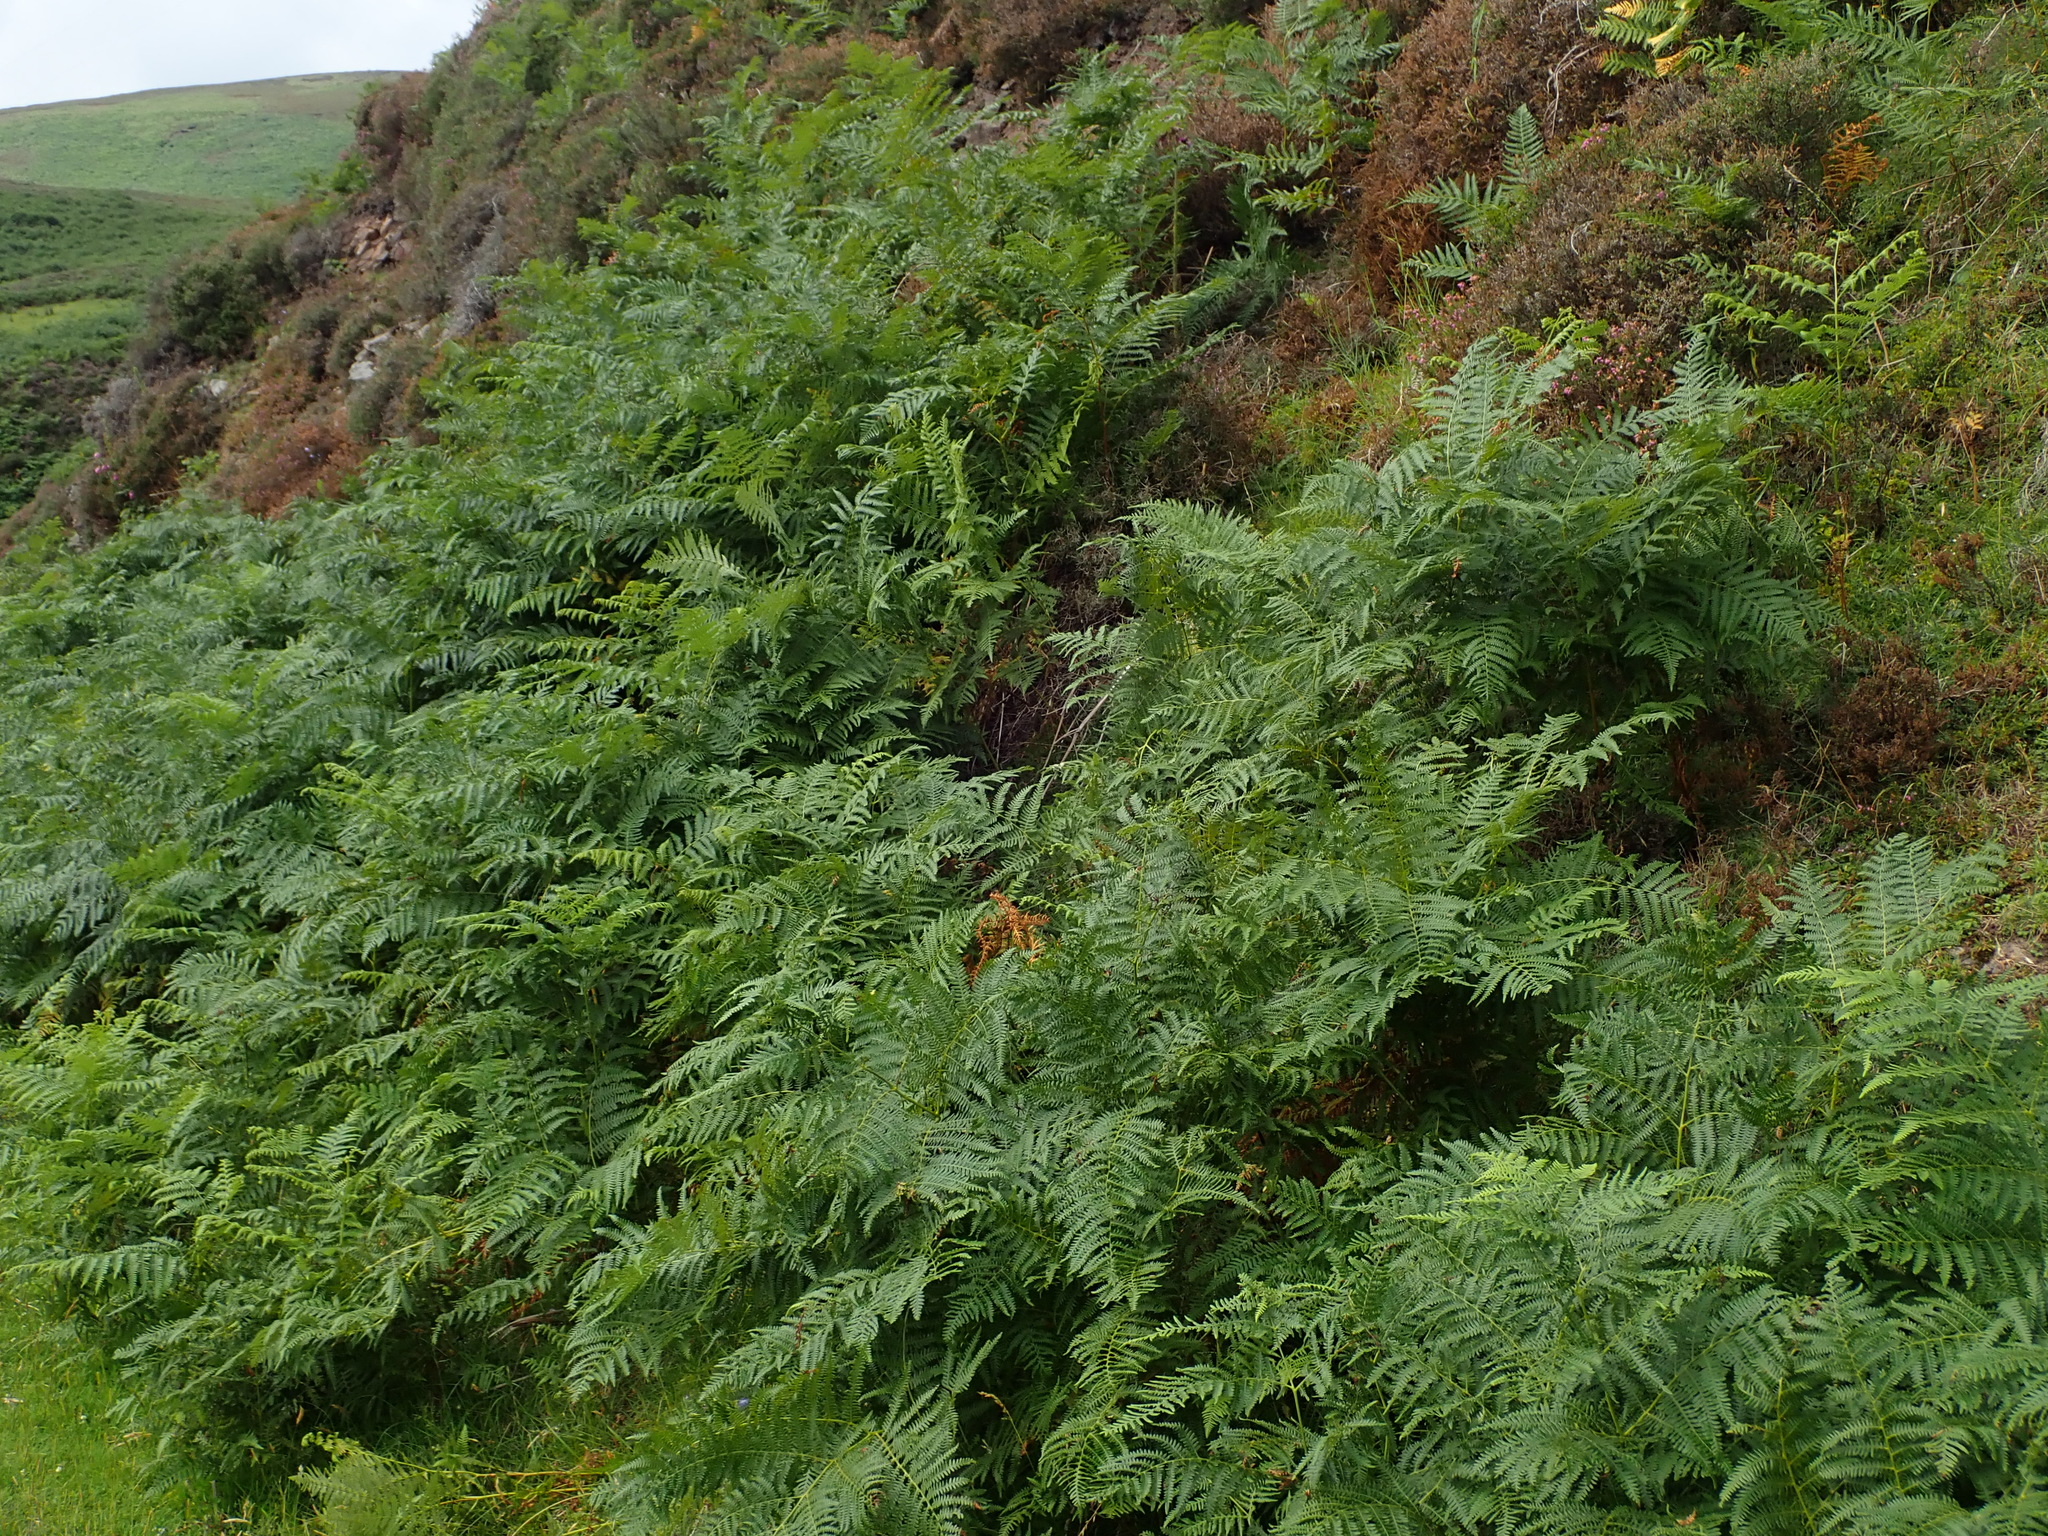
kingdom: Plantae
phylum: Tracheophyta
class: Polypodiopsida
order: Polypodiales
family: Dennstaedtiaceae
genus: Pteridium
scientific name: Pteridium aquilinum
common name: Bracken
